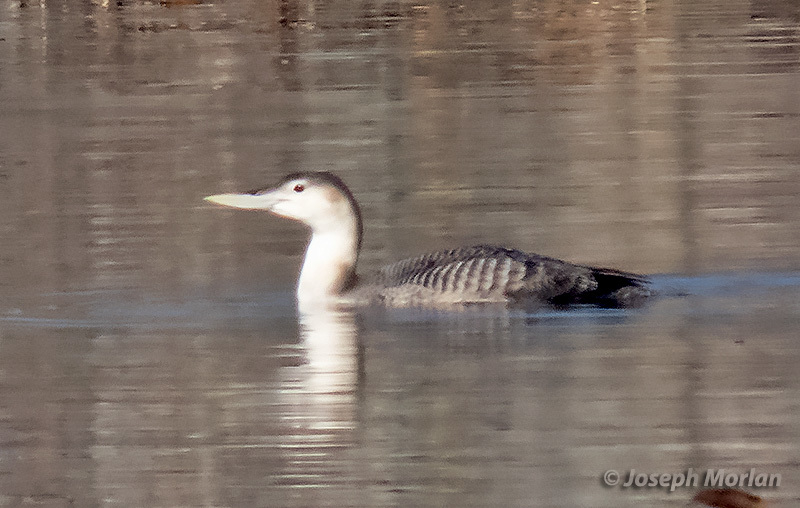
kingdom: Animalia
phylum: Chordata
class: Aves
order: Gaviiformes
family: Gaviidae
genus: Gavia
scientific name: Gavia adamsii
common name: Yellow-billed loon
